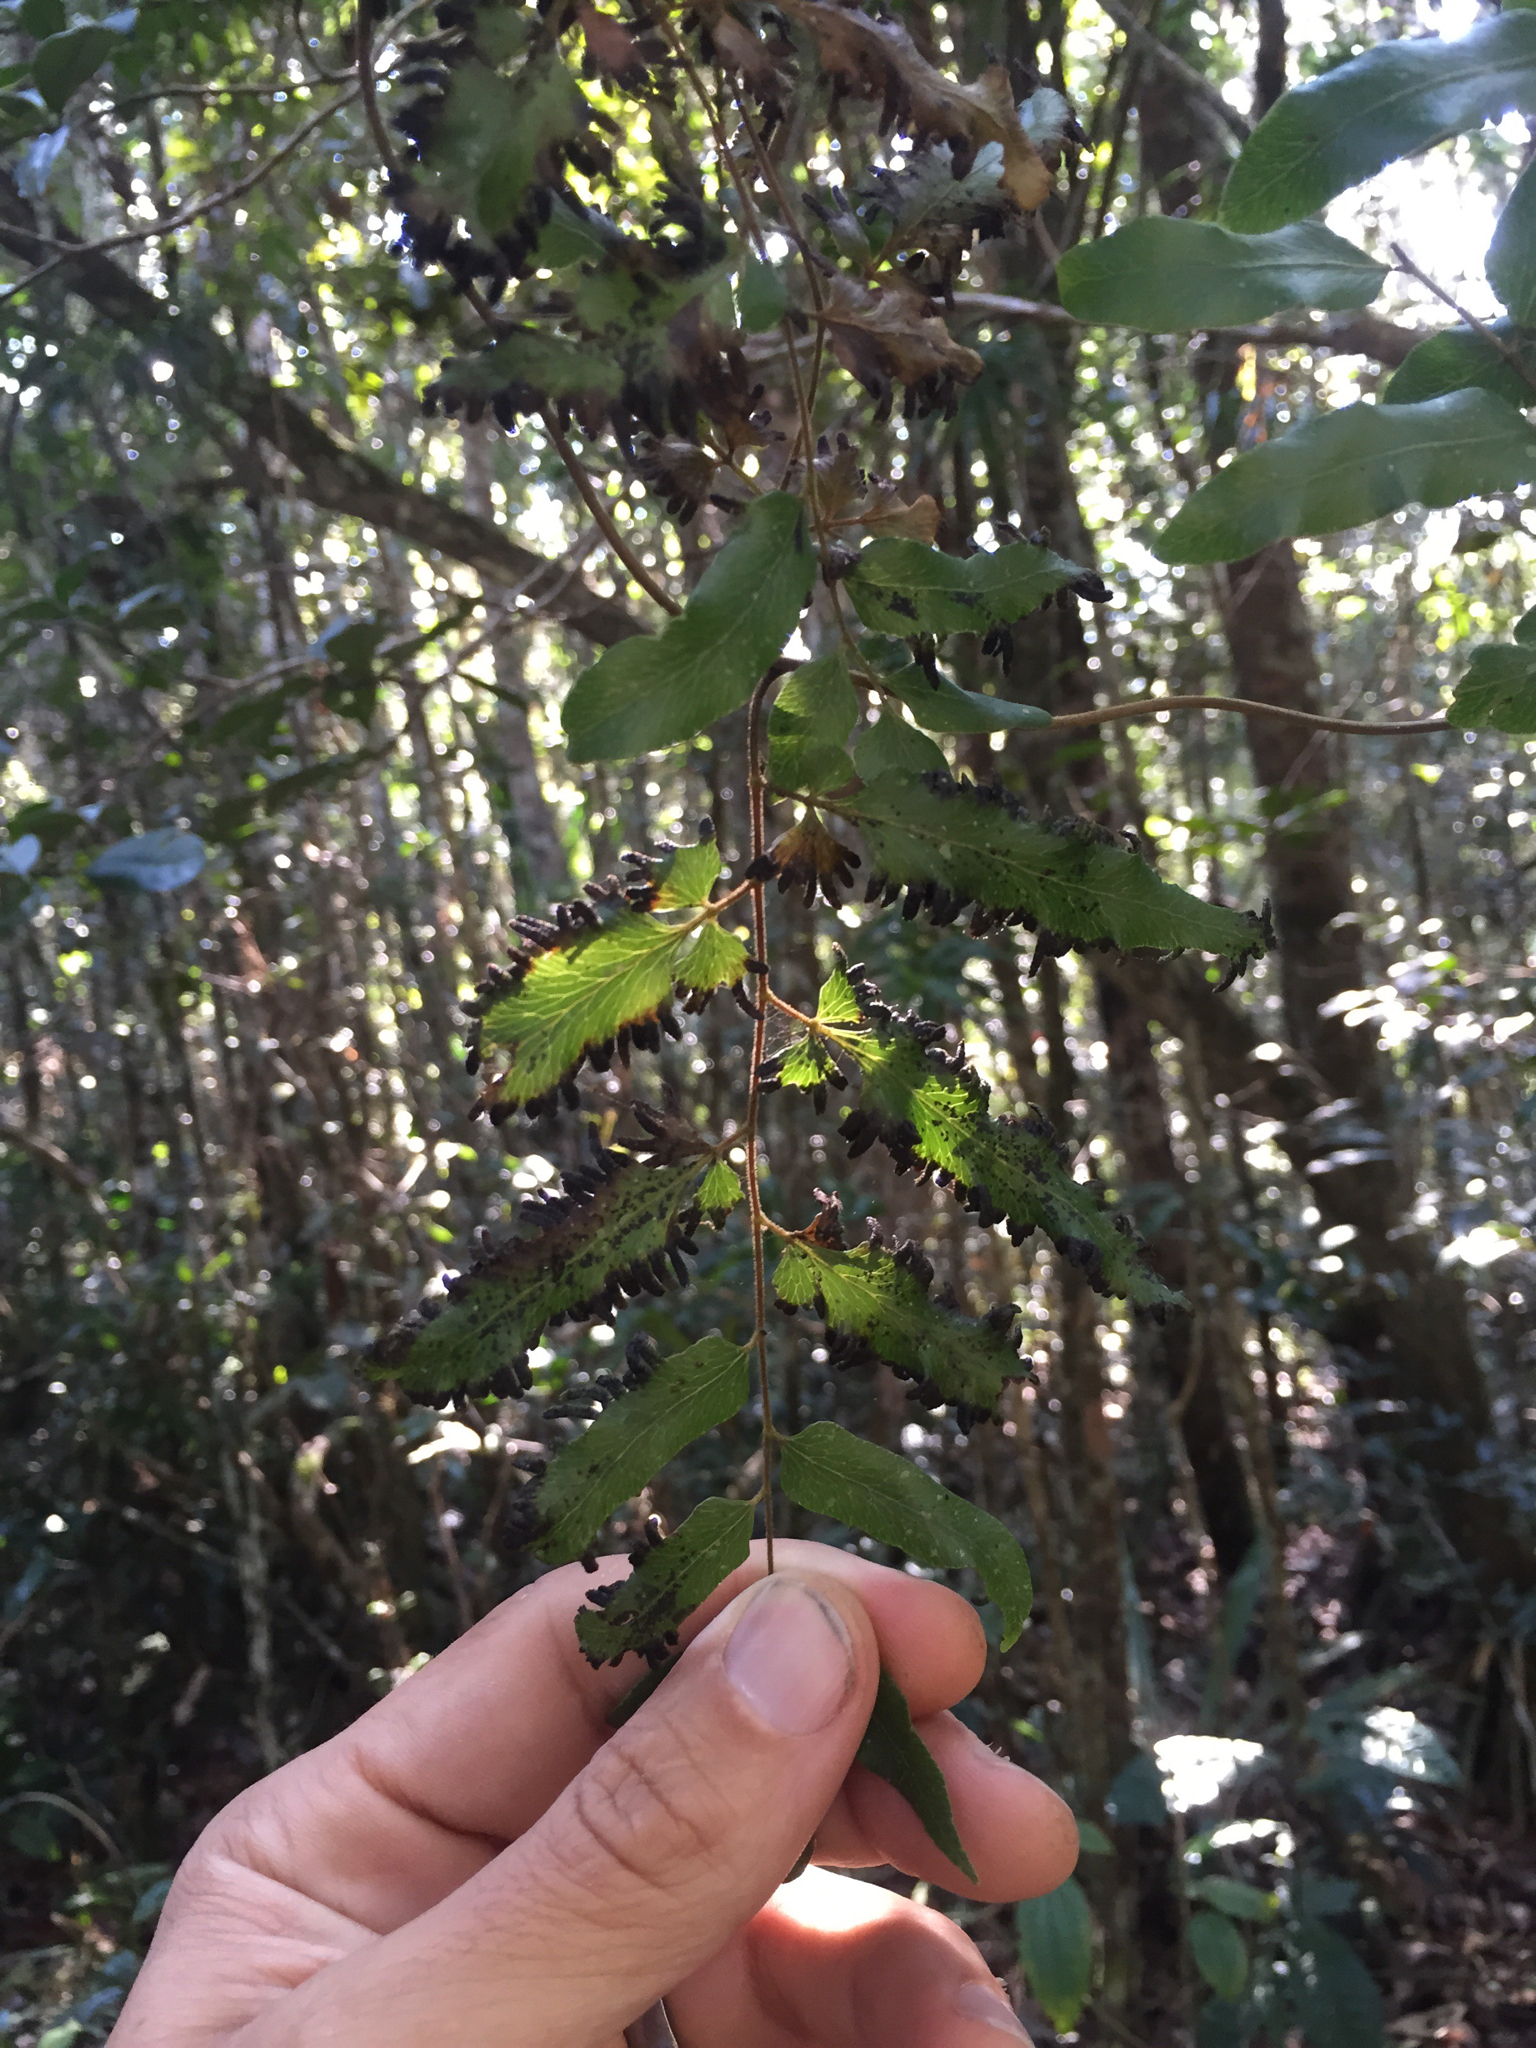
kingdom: Plantae
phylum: Tracheophyta
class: Polypodiopsida
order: Schizaeales
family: Lygodiaceae
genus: Lygodium
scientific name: Lygodium lanceolatum
